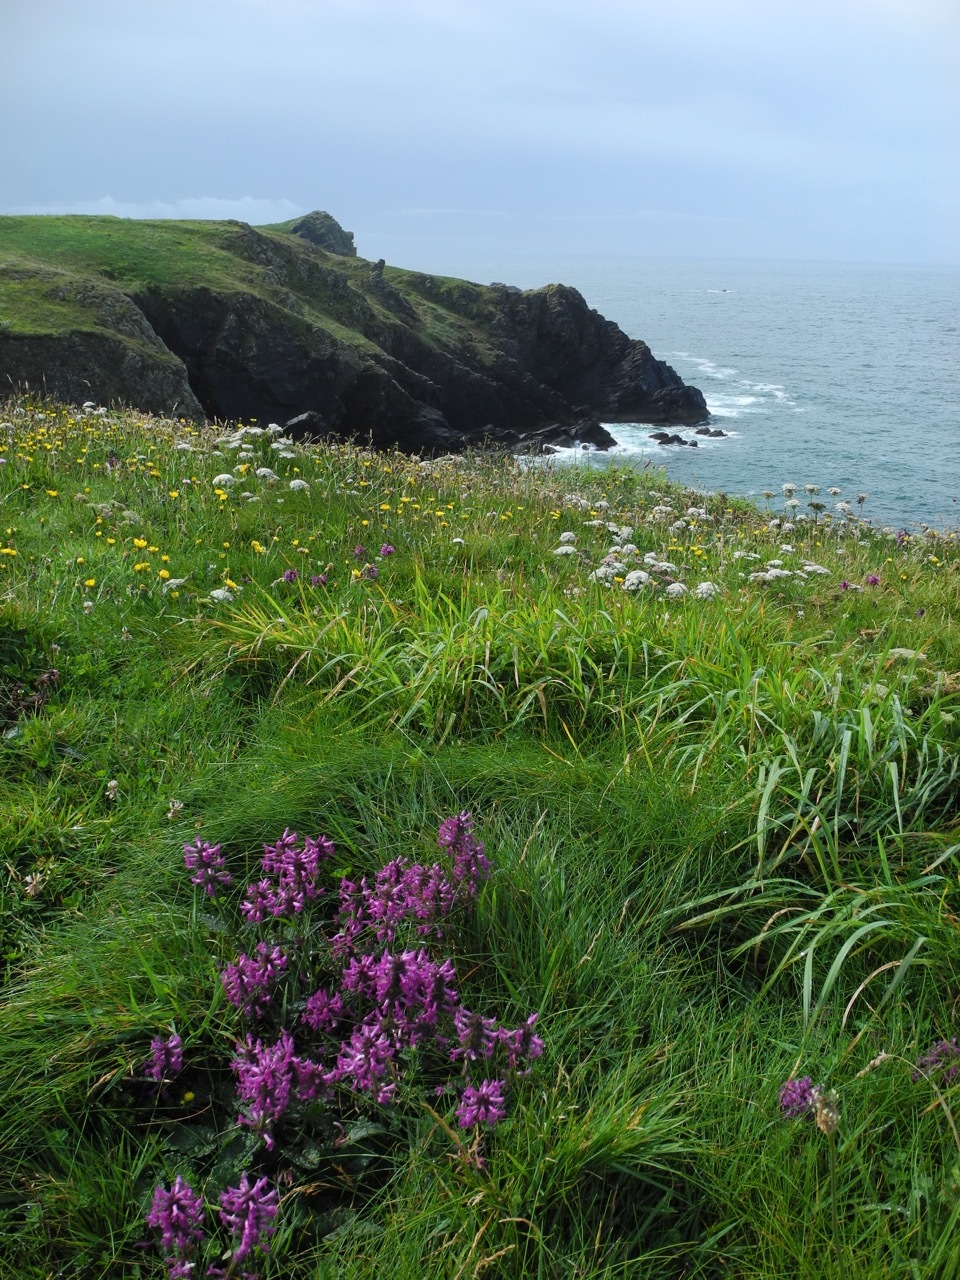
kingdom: Plantae
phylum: Tracheophyta
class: Magnoliopsida
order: Lamiales
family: Lamiaceae
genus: Betonica
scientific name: Betonica officinalis
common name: Bishop's-wort
